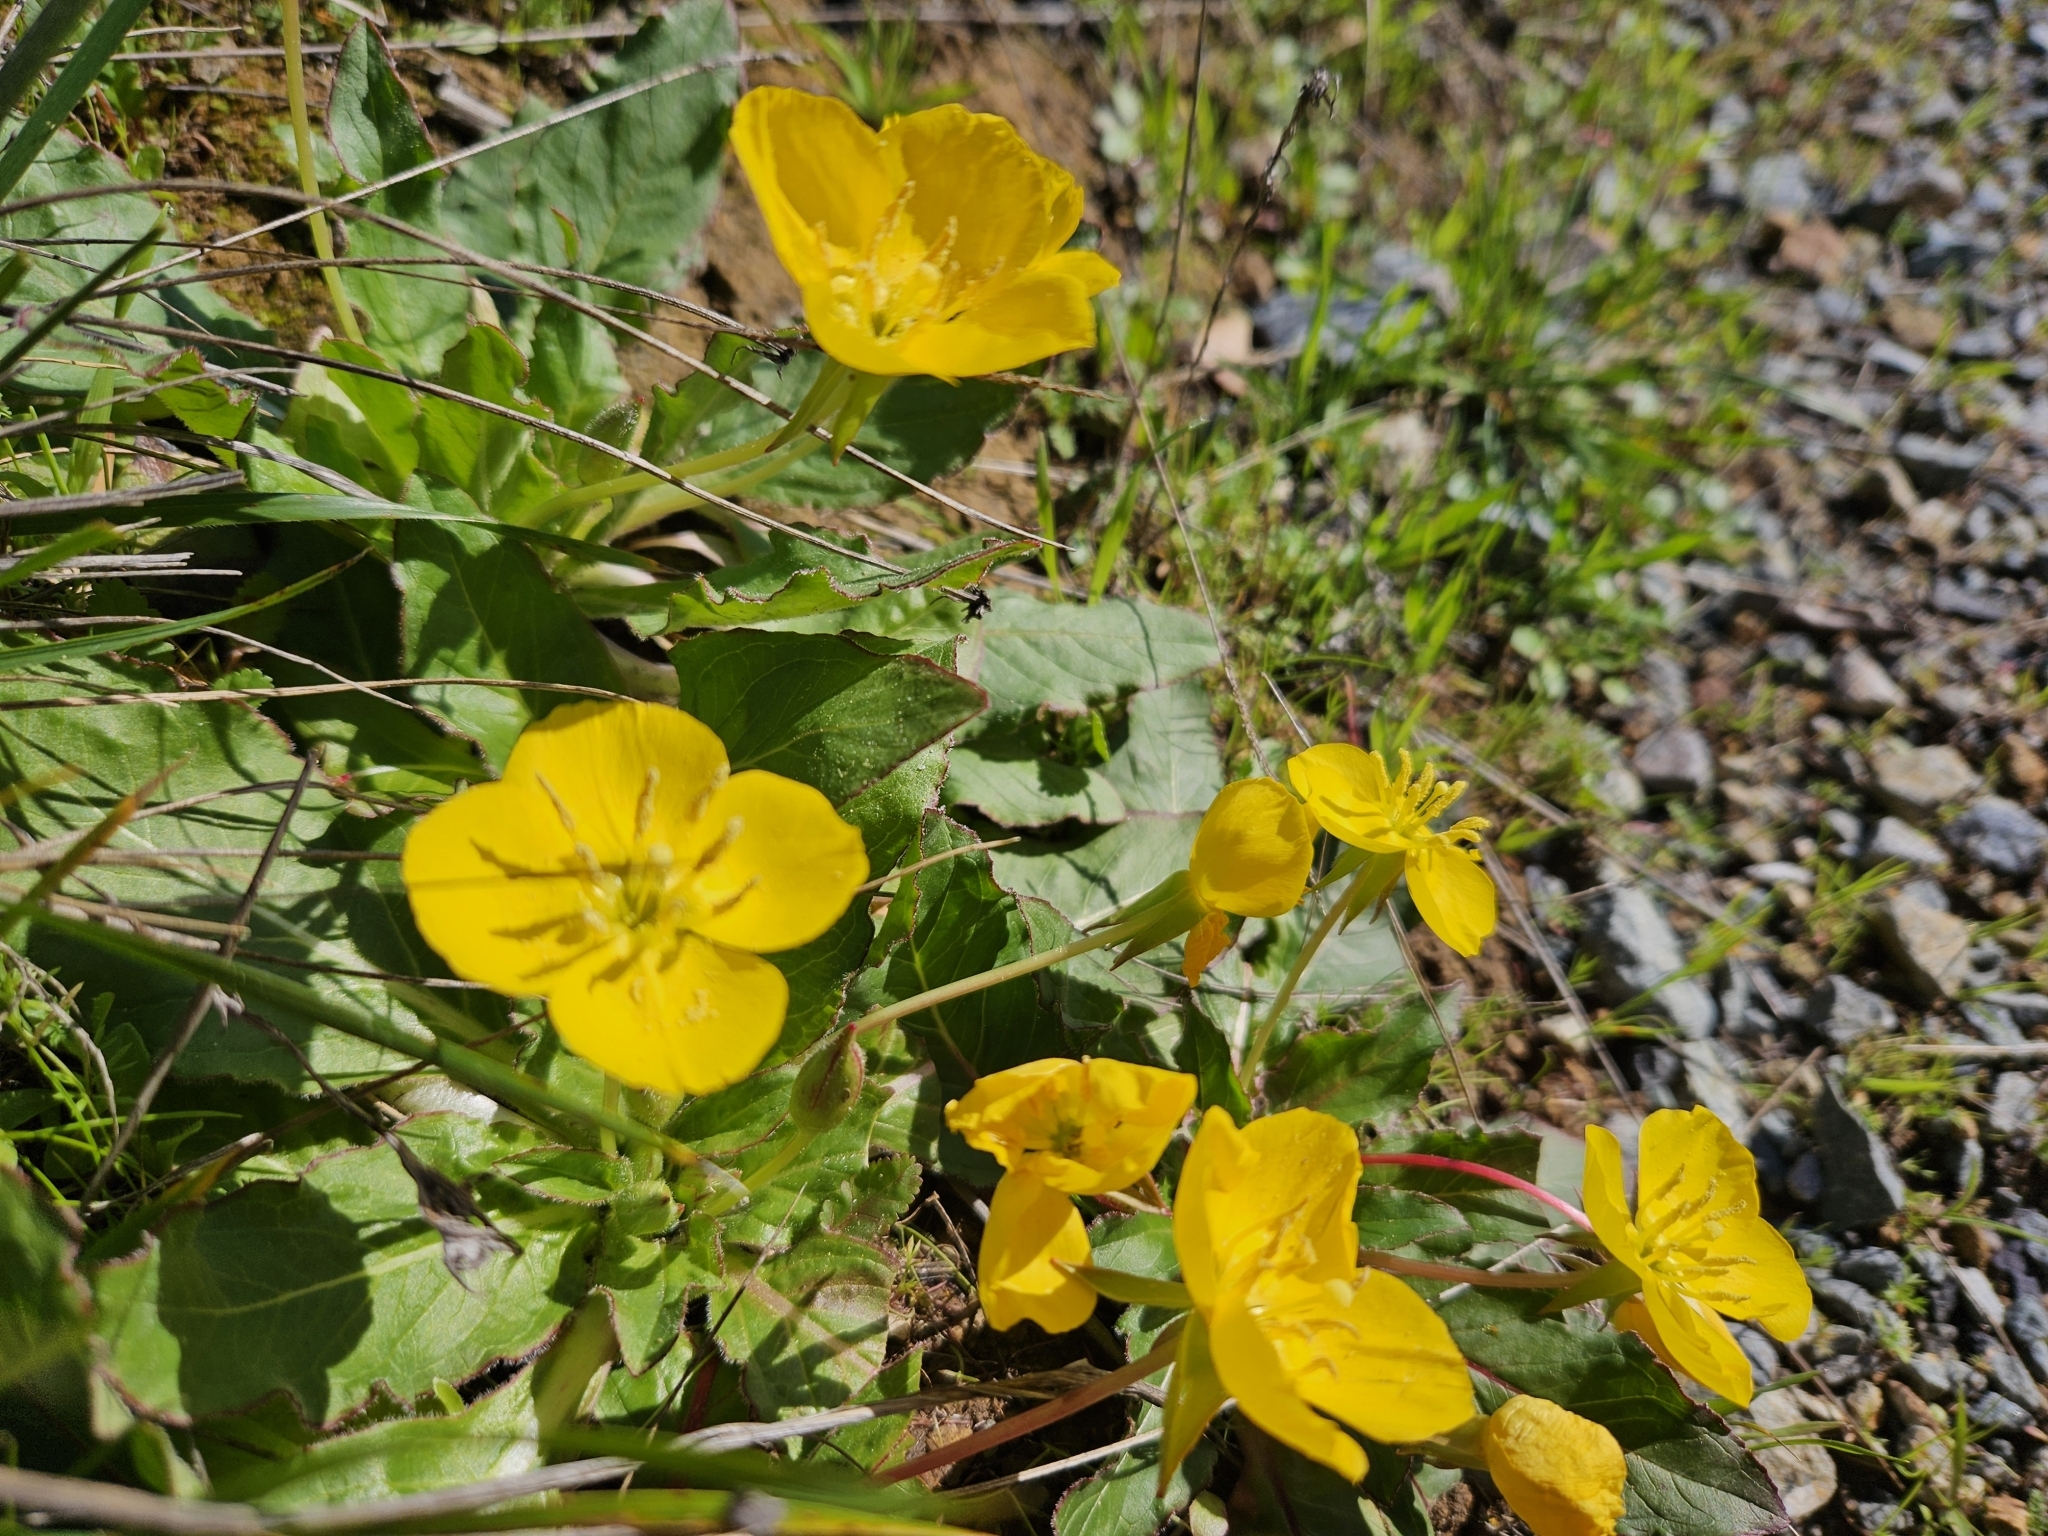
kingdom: Plantae
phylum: Tracheophyta
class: Magnoliopsida
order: Myrtales
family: Onagraceae
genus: Taraxia
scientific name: Taraxia ovata
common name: Goldeneggs
